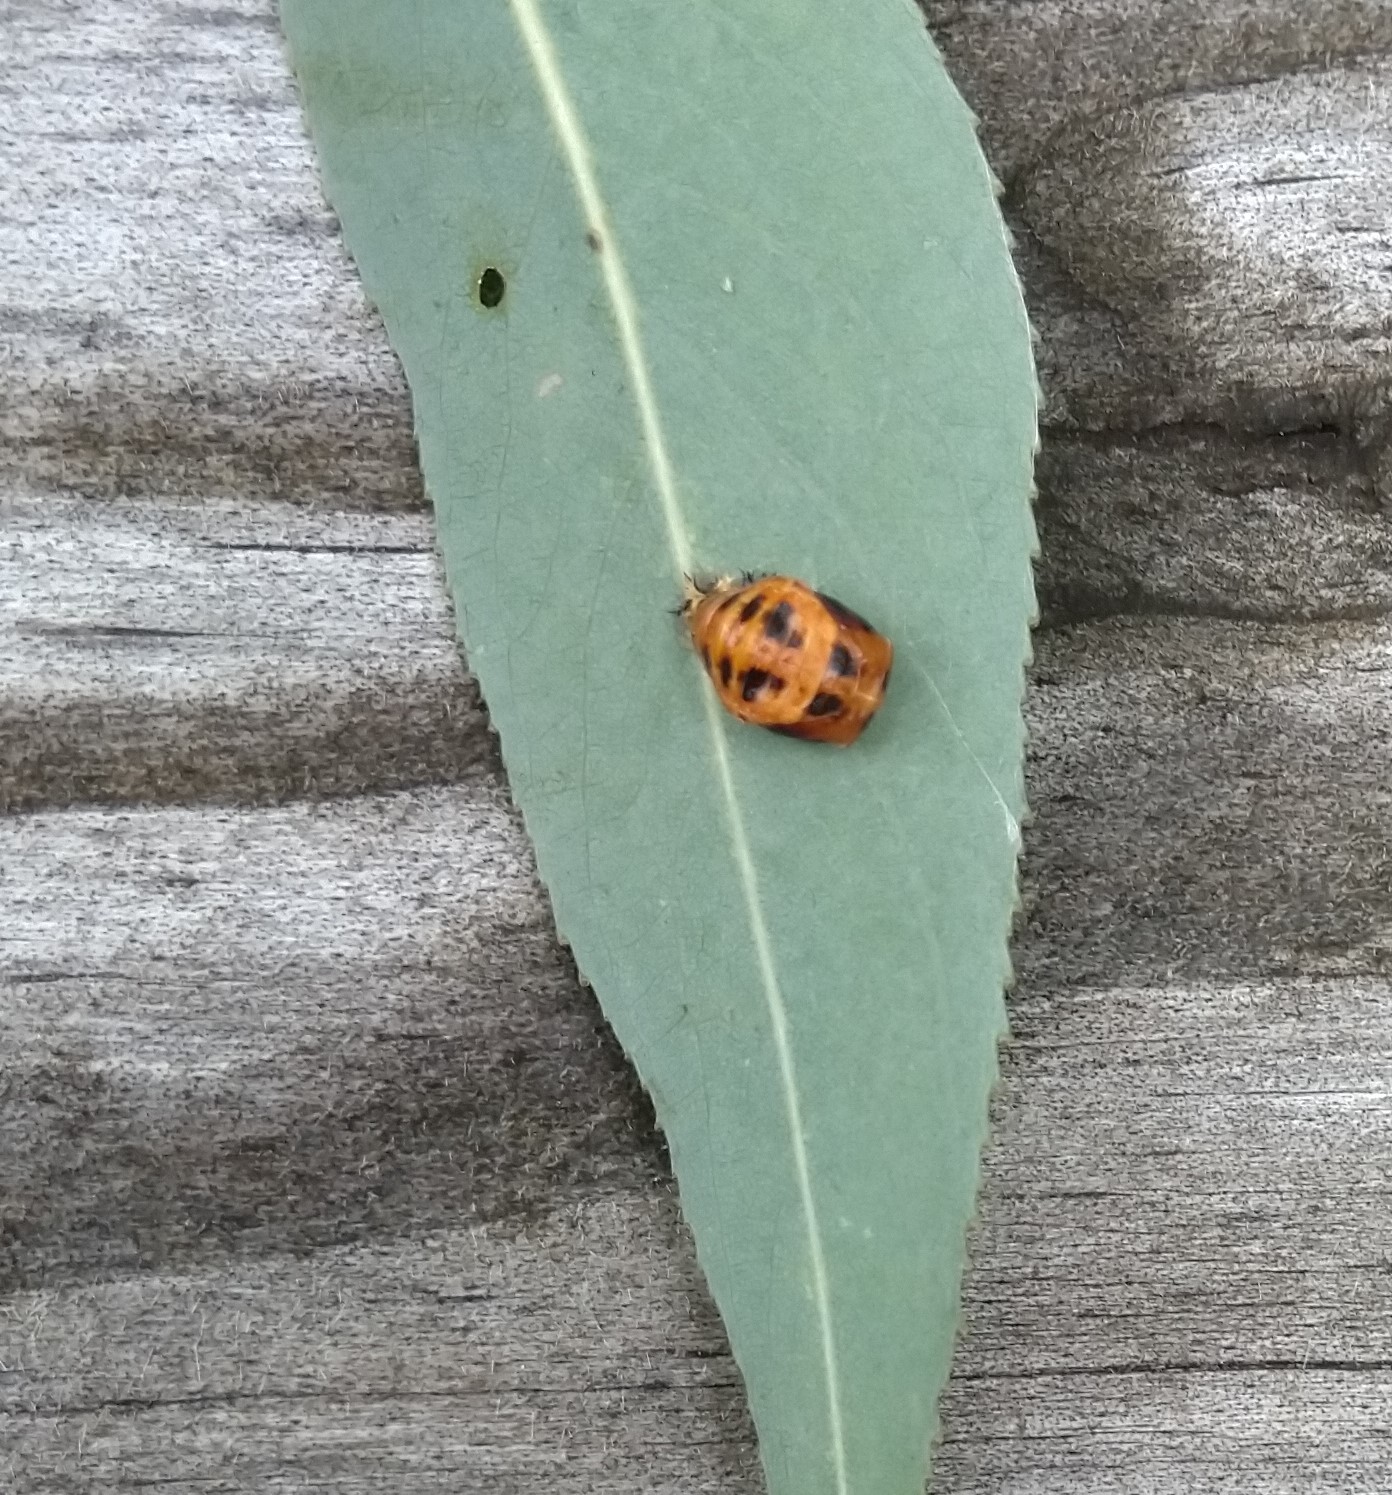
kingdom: Animalia
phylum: Arthropoda
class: Insecta
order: Coleoptera
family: Coccinellidae
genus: Harmonia
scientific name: Harmonia axyridis
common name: Harlequin ladybird
